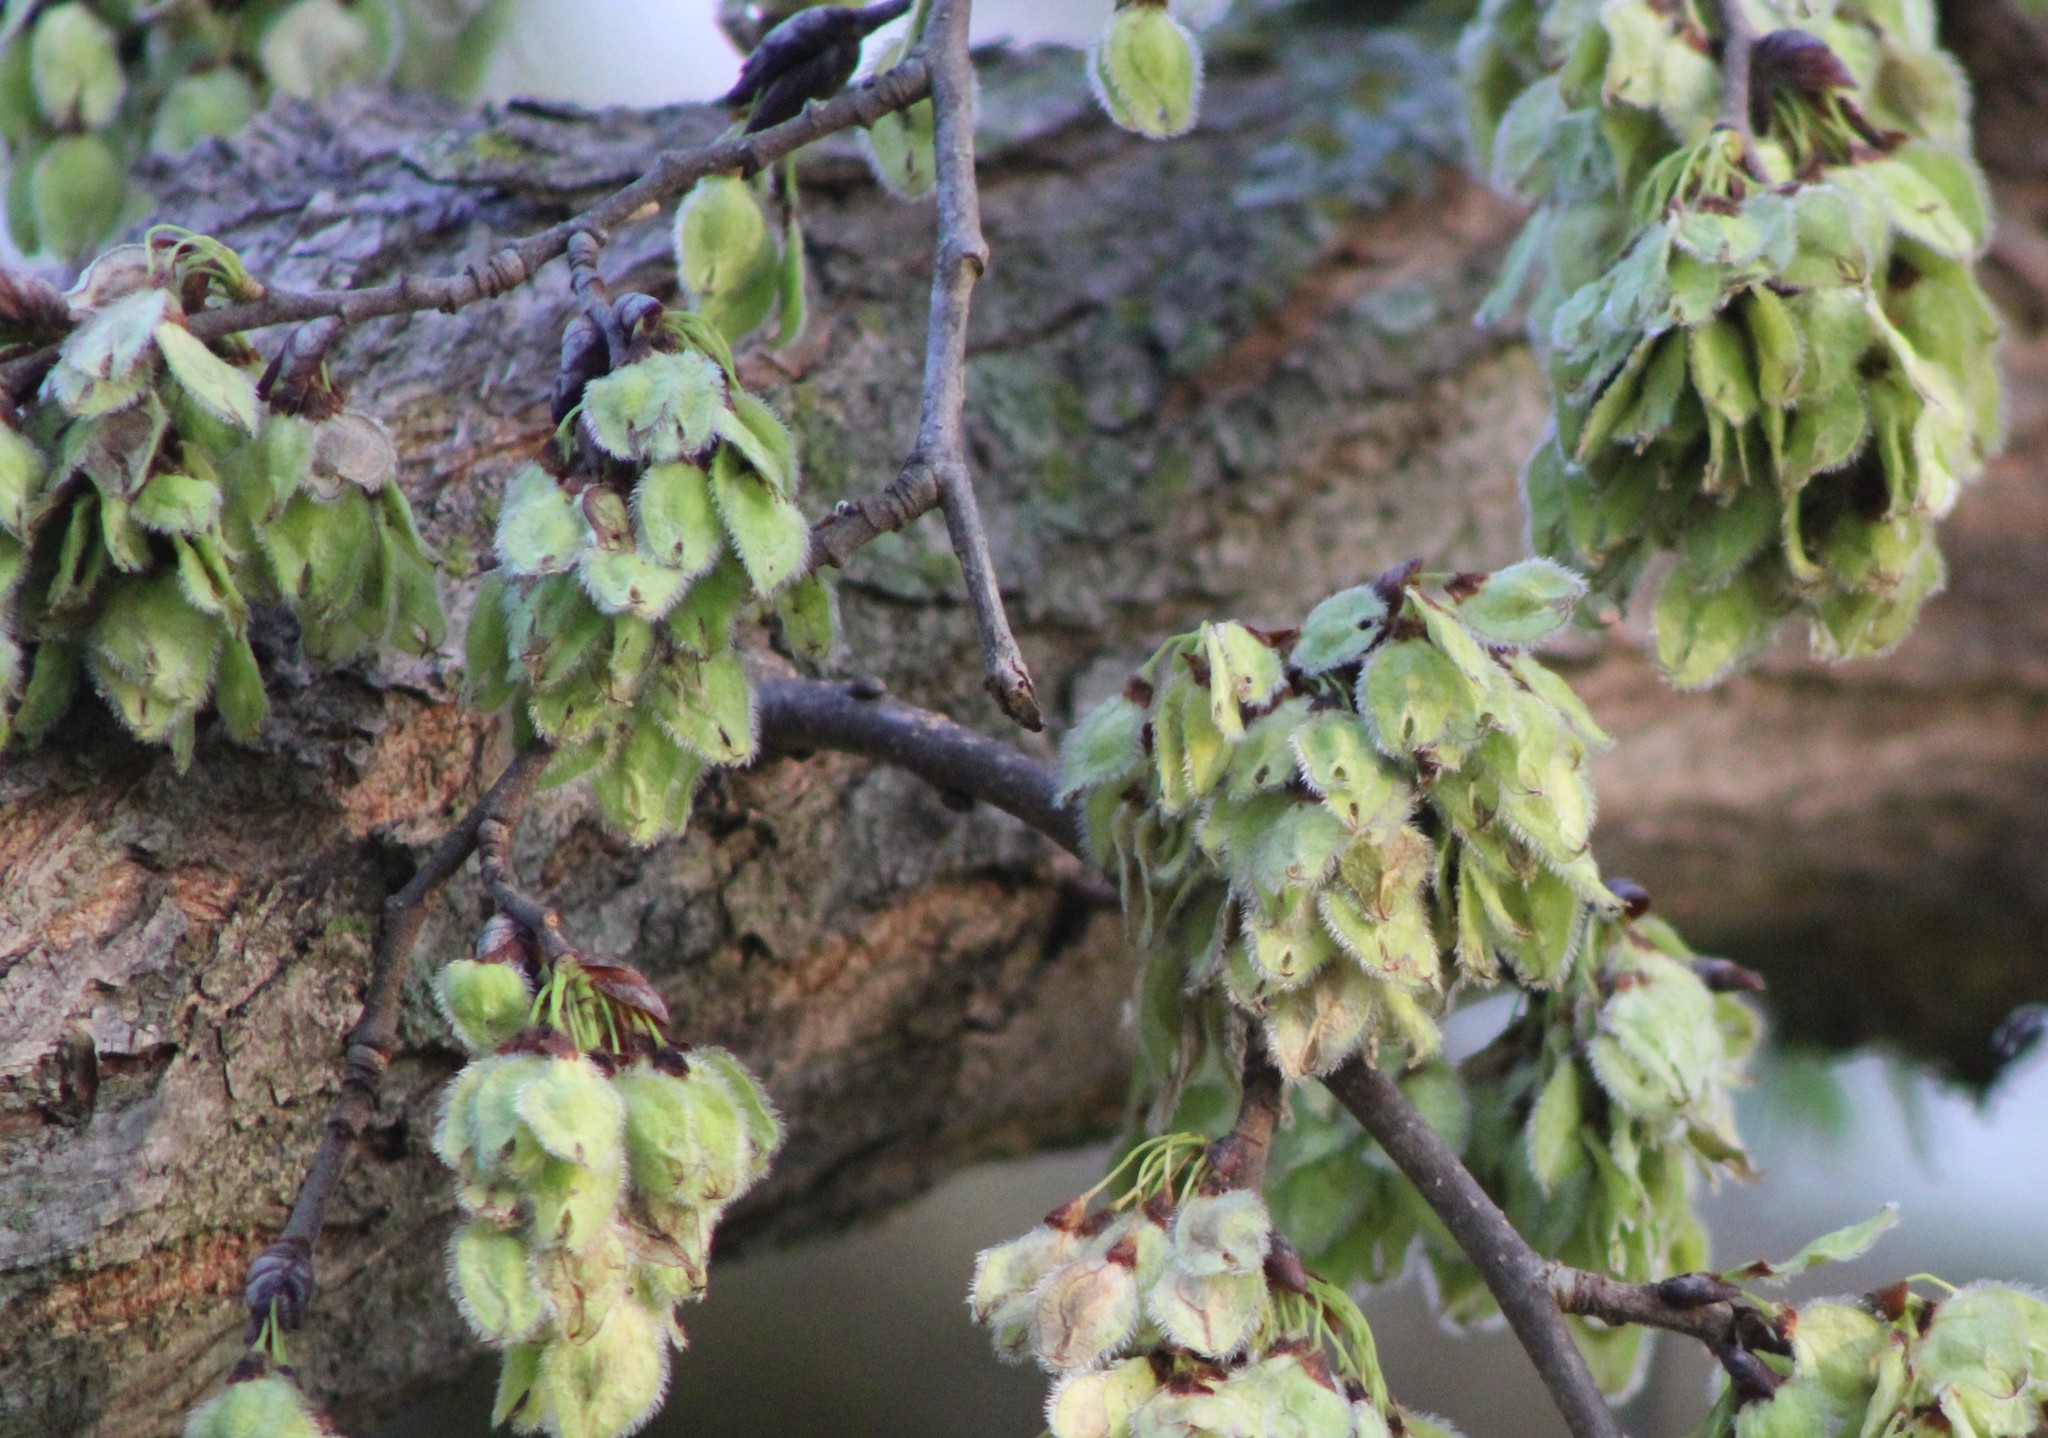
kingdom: Plantae
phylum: Tracheophyta
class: Magnoliopsida
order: Rosales
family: Ulmaceae
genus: Ulmus
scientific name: Ulmus americana
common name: American elm
